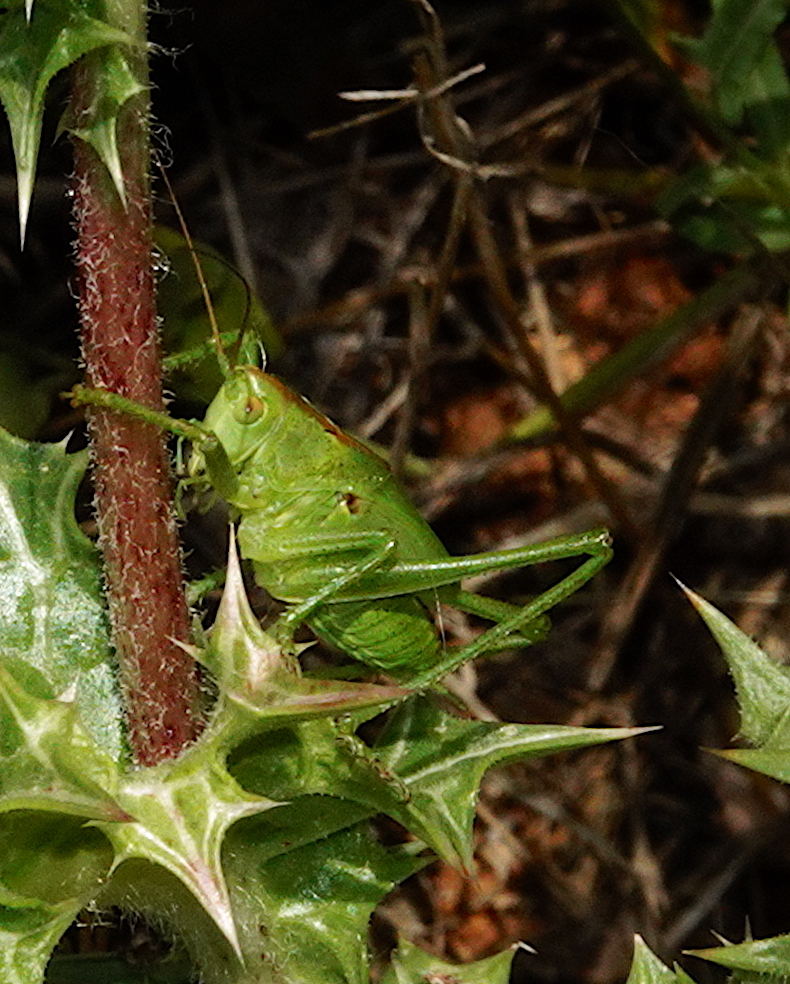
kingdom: Animalia
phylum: Arthropoda
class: Insecta
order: Orthoptera
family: Tettigoniidae
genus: Tettigonia
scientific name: Tettigonia viridissima
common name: Great green bush-cricket
